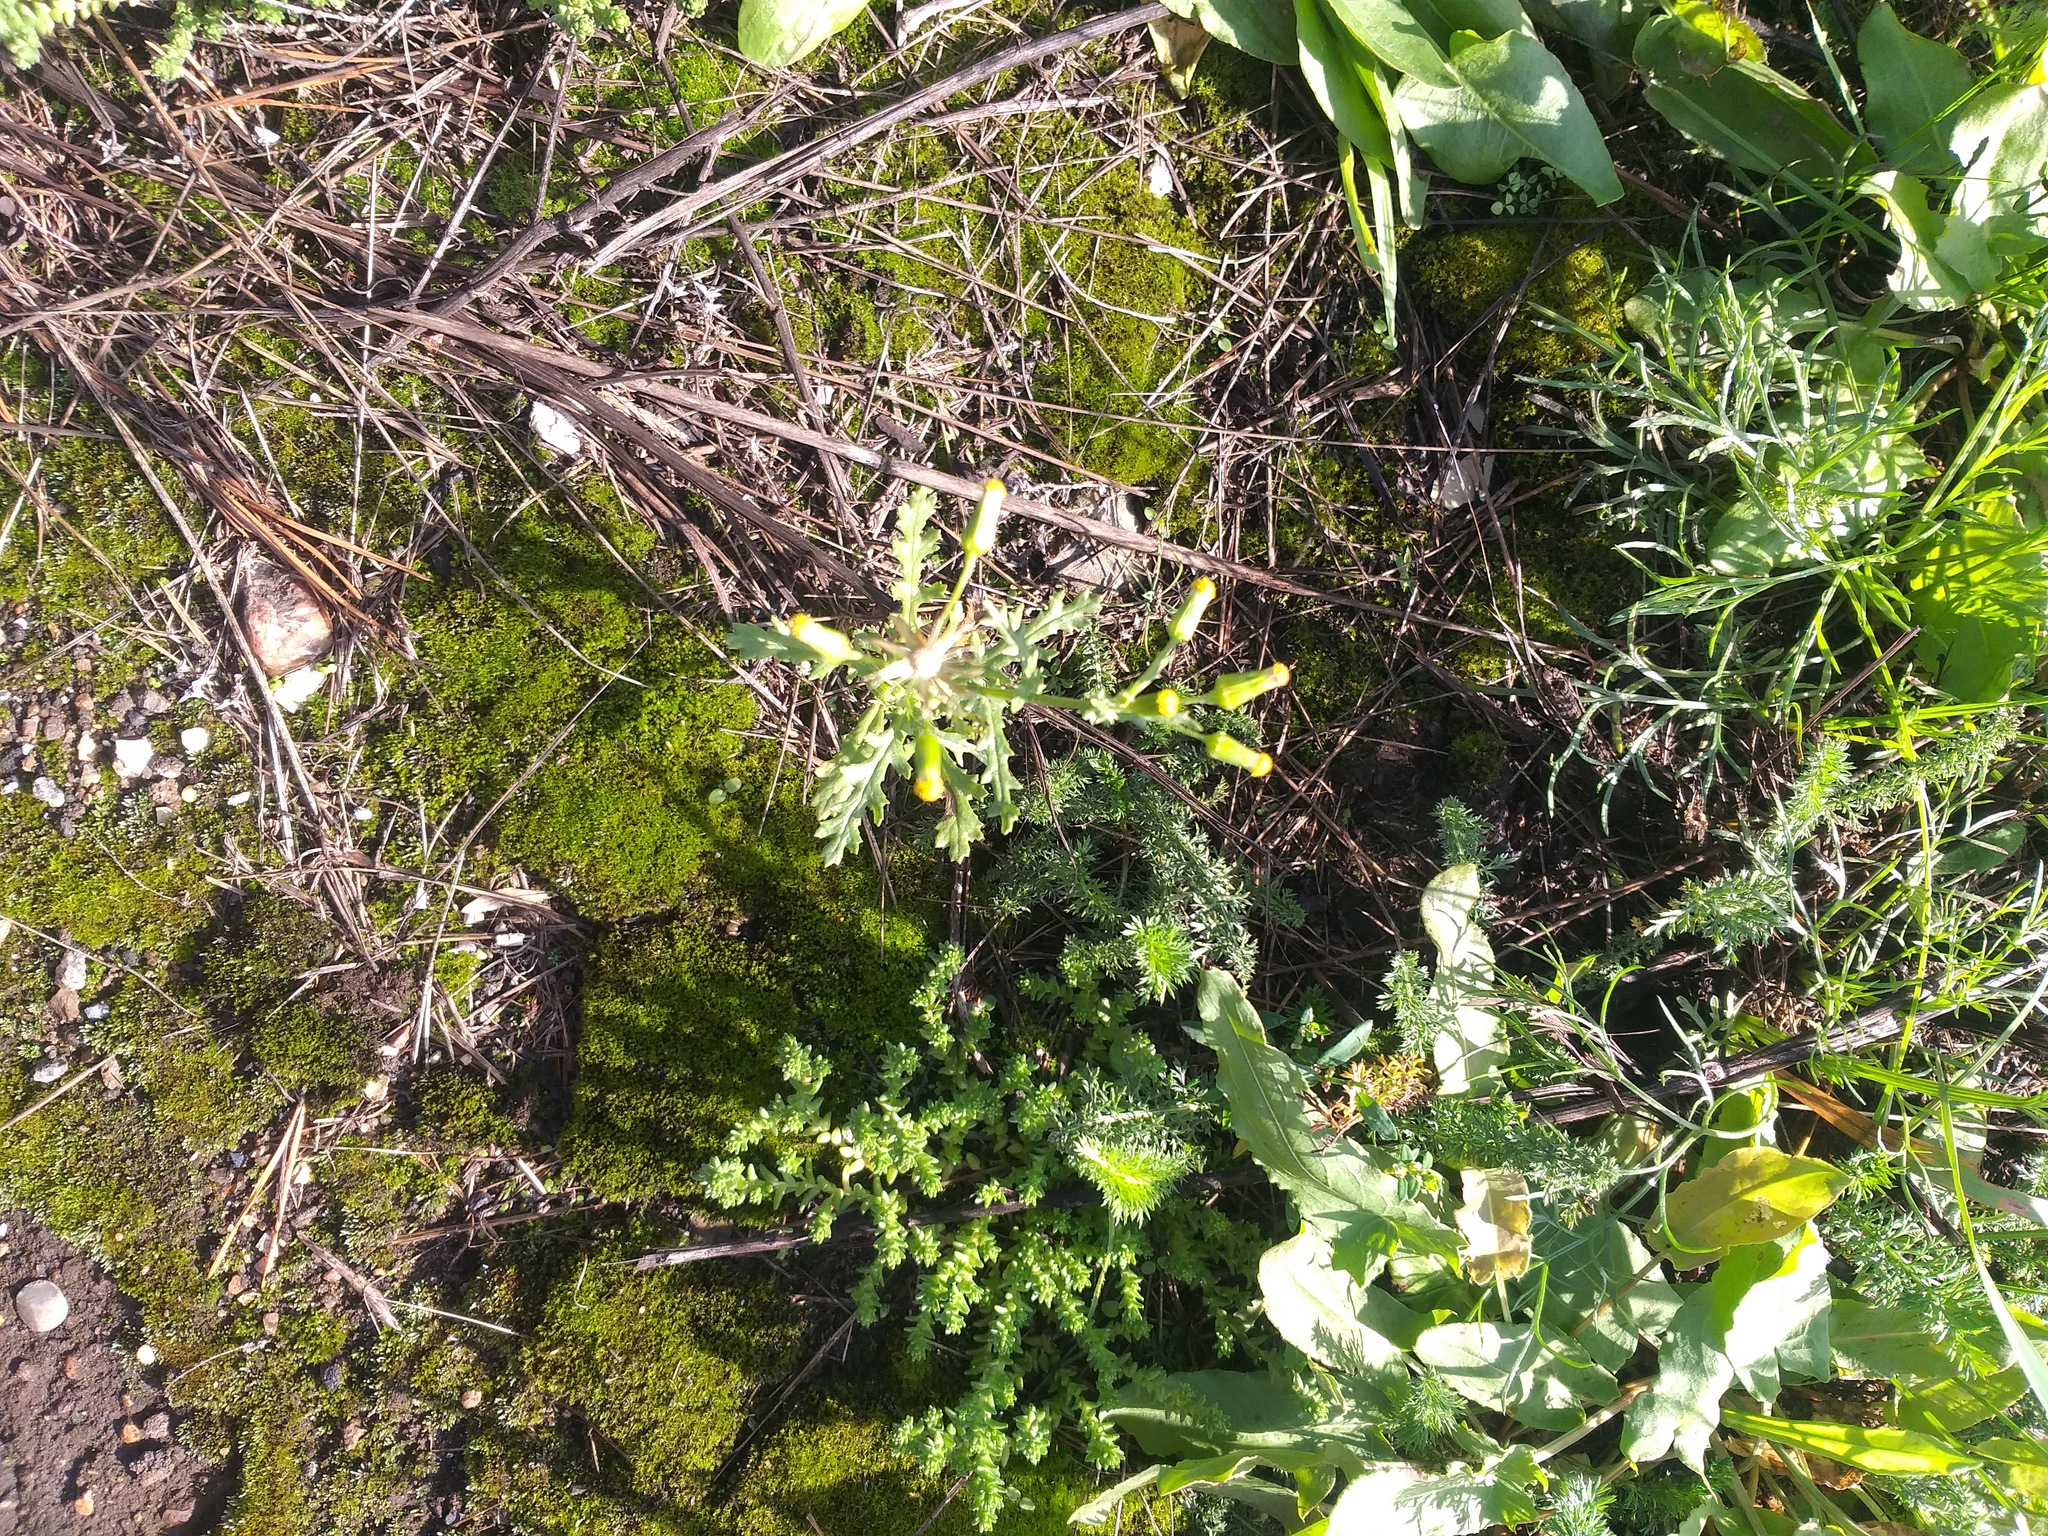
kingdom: Plantae
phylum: Tracheophyta
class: Magnoliopsida
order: Asterales
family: Asteraceae
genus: Senecio
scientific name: Senecio vulgaris
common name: Old-man-in-the-spring
